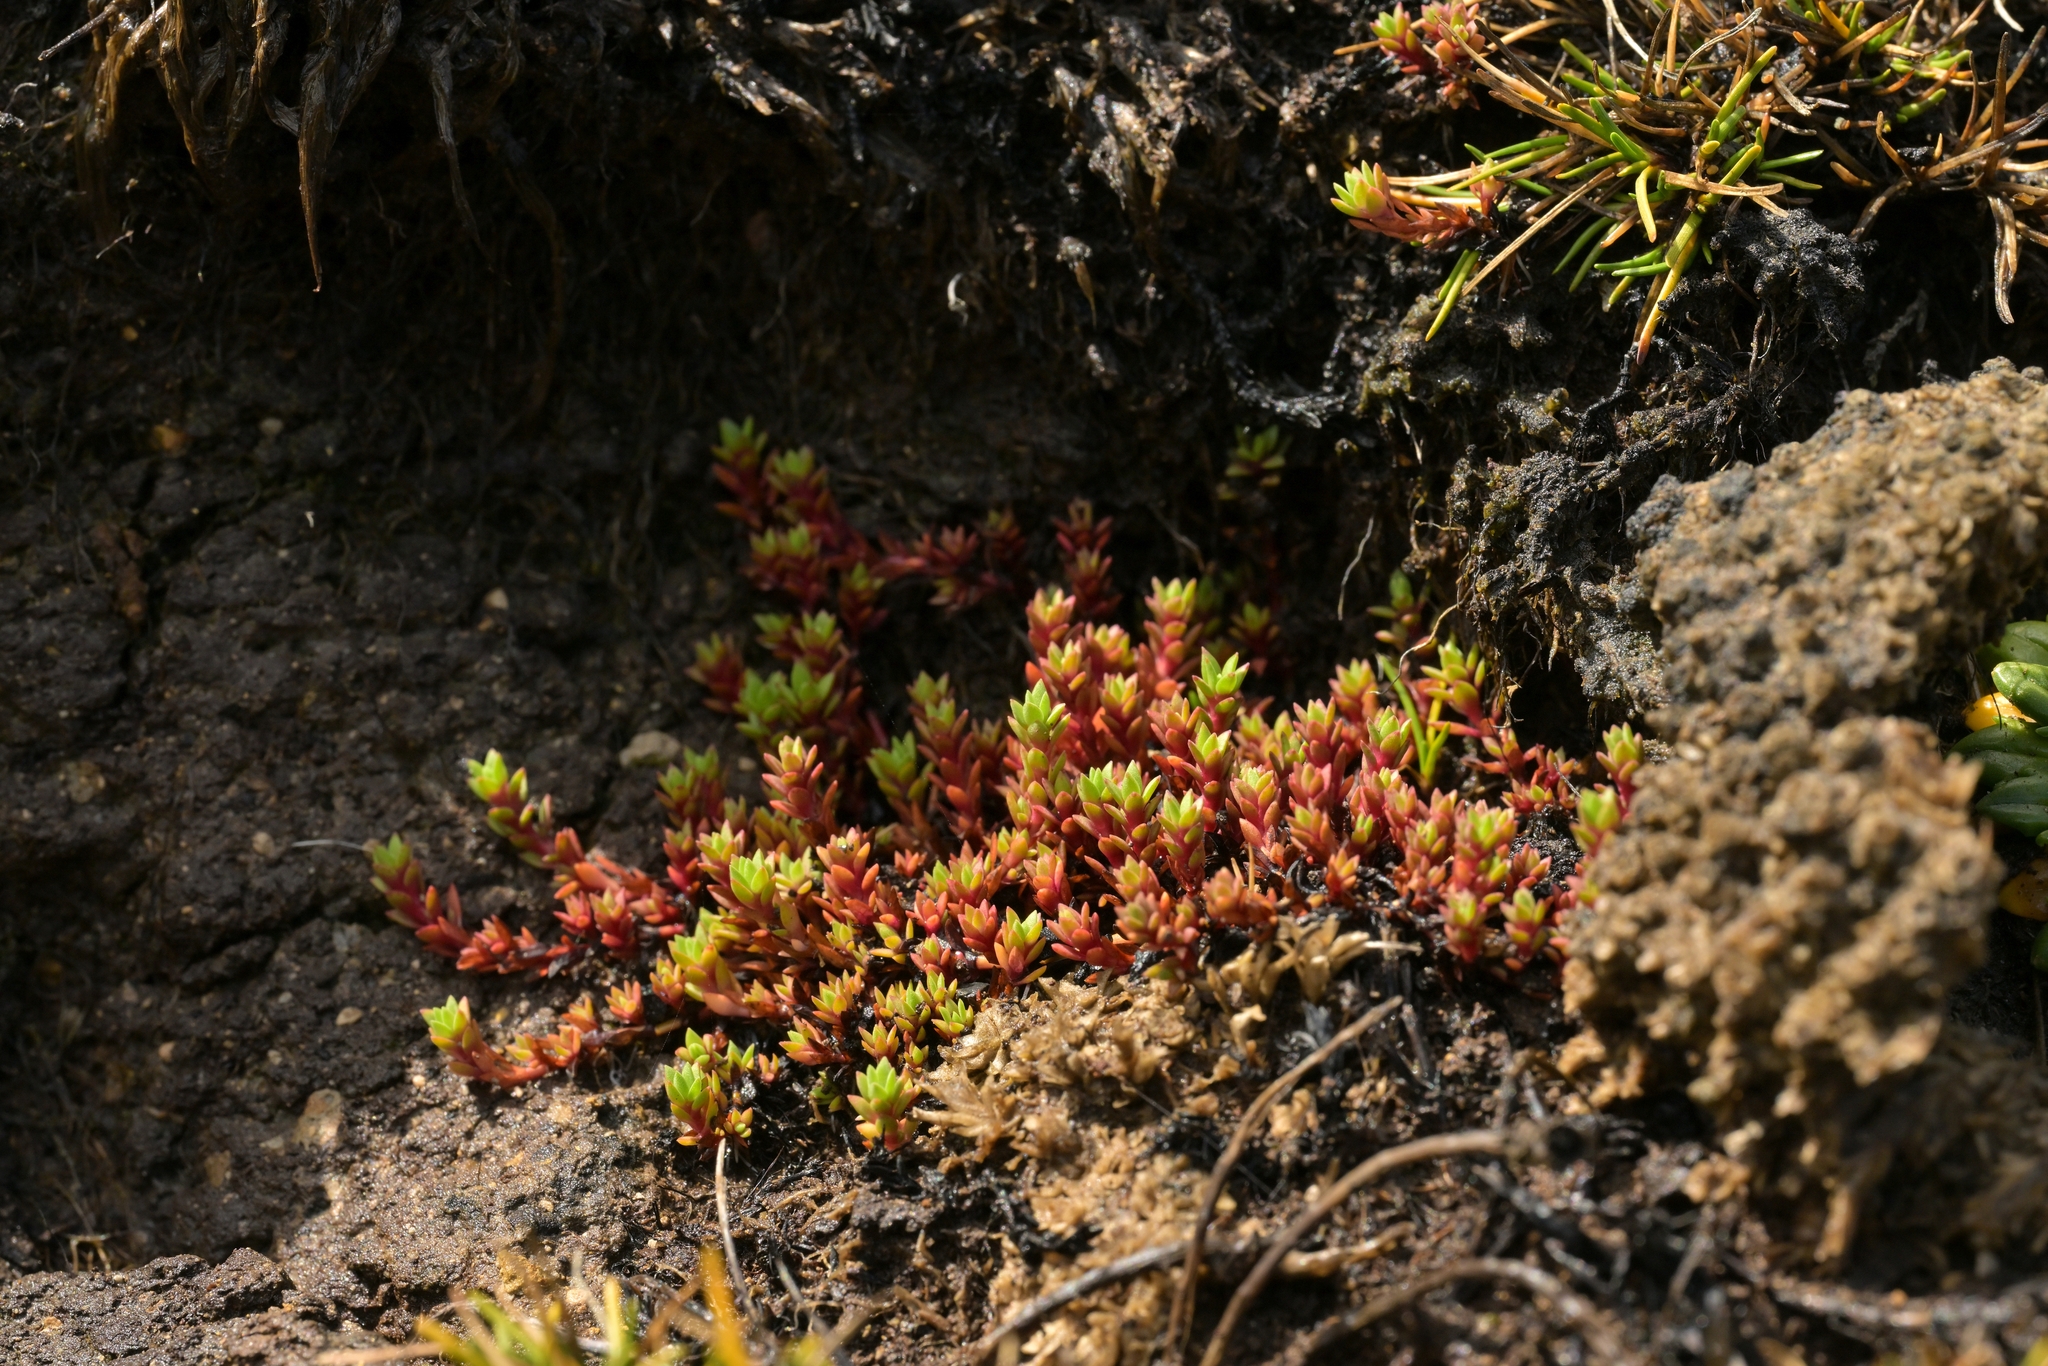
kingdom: Plantae
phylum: Tracheophyta
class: Magnoliopsida
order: Saxifragales
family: Crassulaceae
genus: Crassula
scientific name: Crassula moschata
